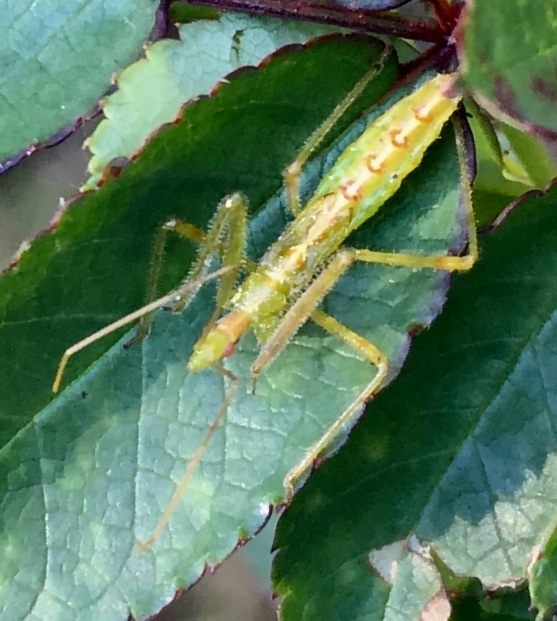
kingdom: Animalia
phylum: Arthropoda
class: Insecta
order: Hemiptera
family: Reduviidae
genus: Zelus
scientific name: Zelus luridus
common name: Pale green assassin bug
